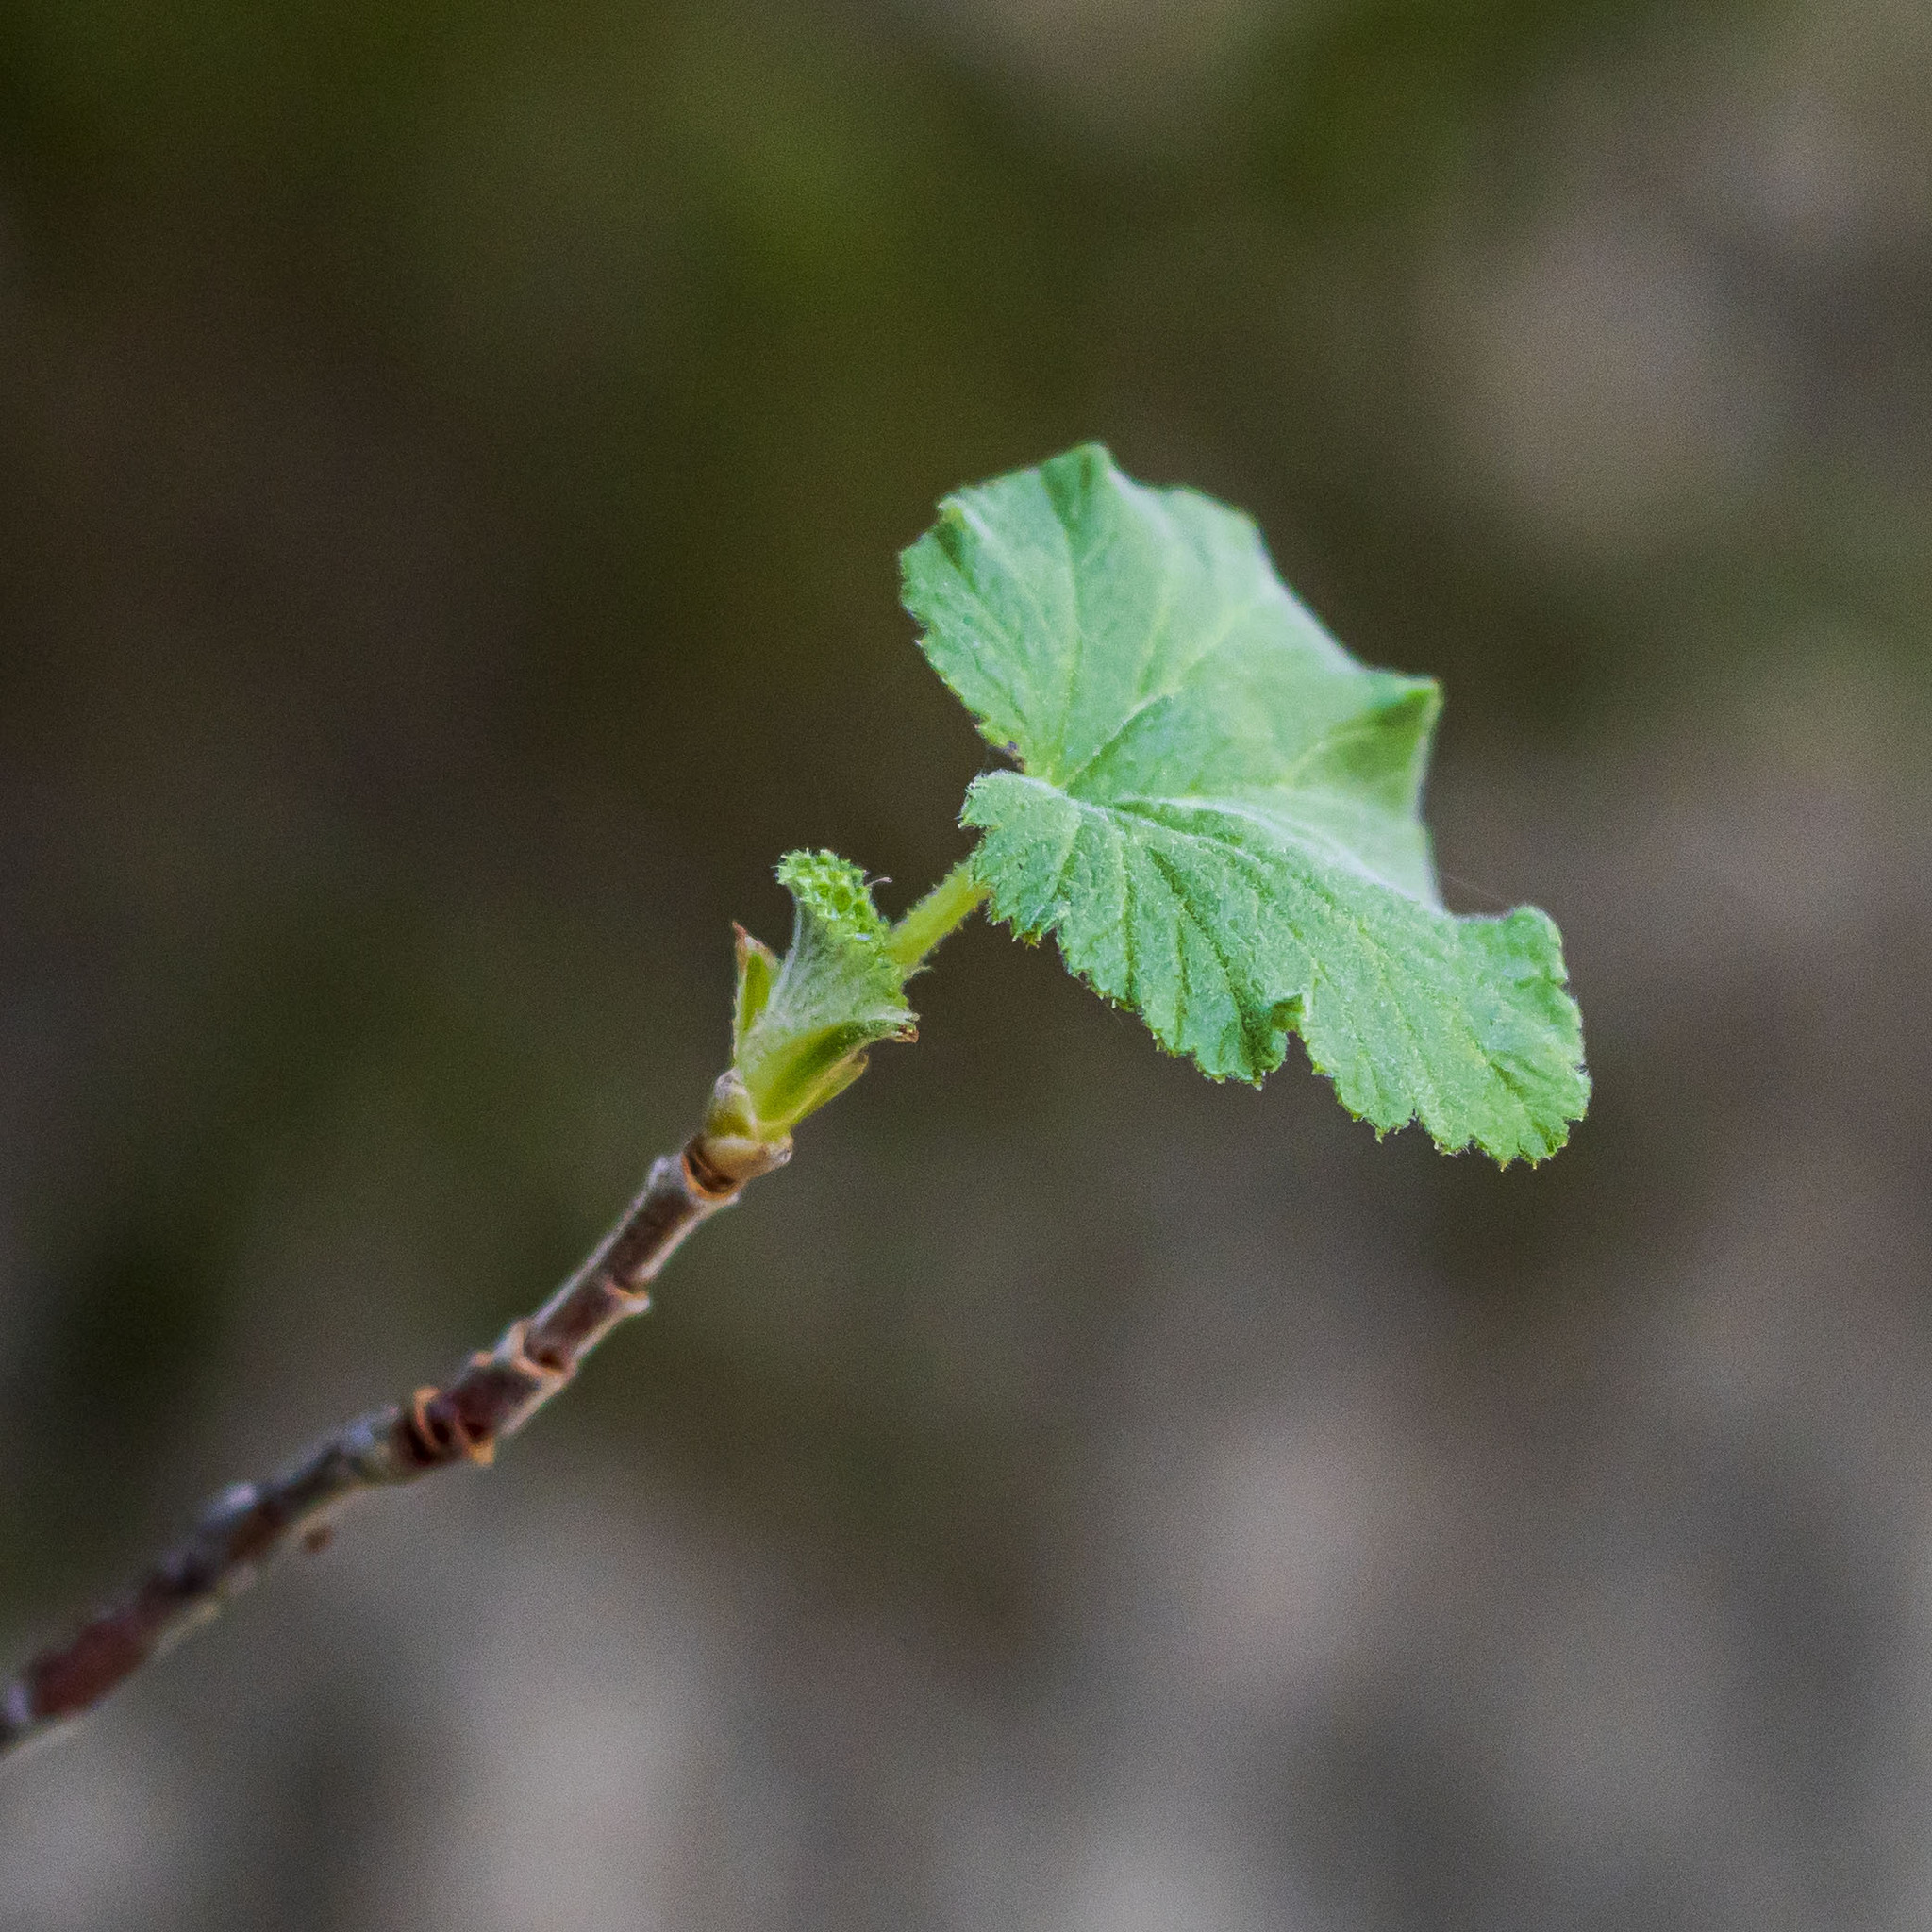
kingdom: Plantae
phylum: Tracheophyta
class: Magnoliopsida
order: Saxifragales
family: Grossulariaceae
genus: Ribes
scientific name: Ribes canthariforme
